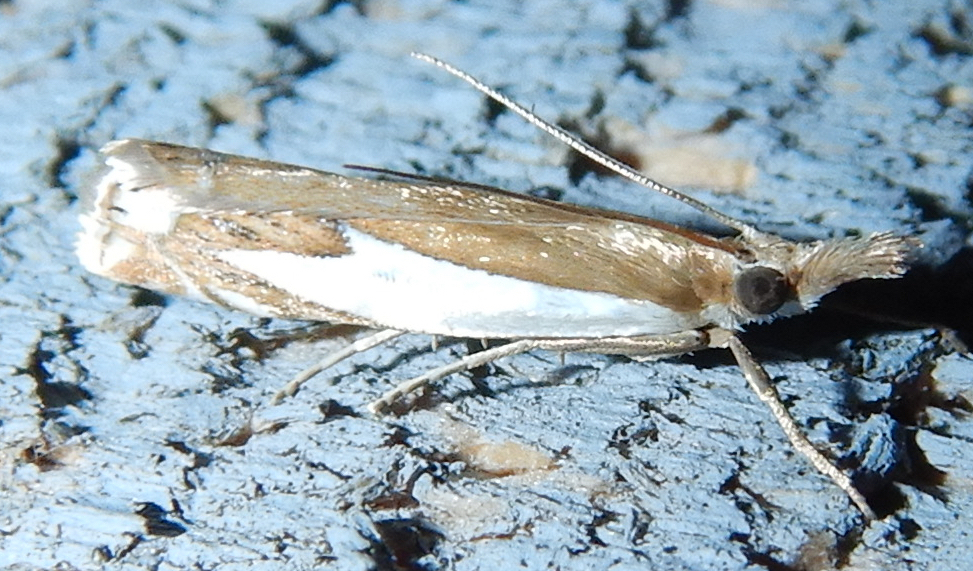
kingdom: Animalia
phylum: Arthropoda
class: Insecta
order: Lepidoptera
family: Crambidae
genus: Crambus
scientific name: Crambus bidens
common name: Forked grass-veneer
